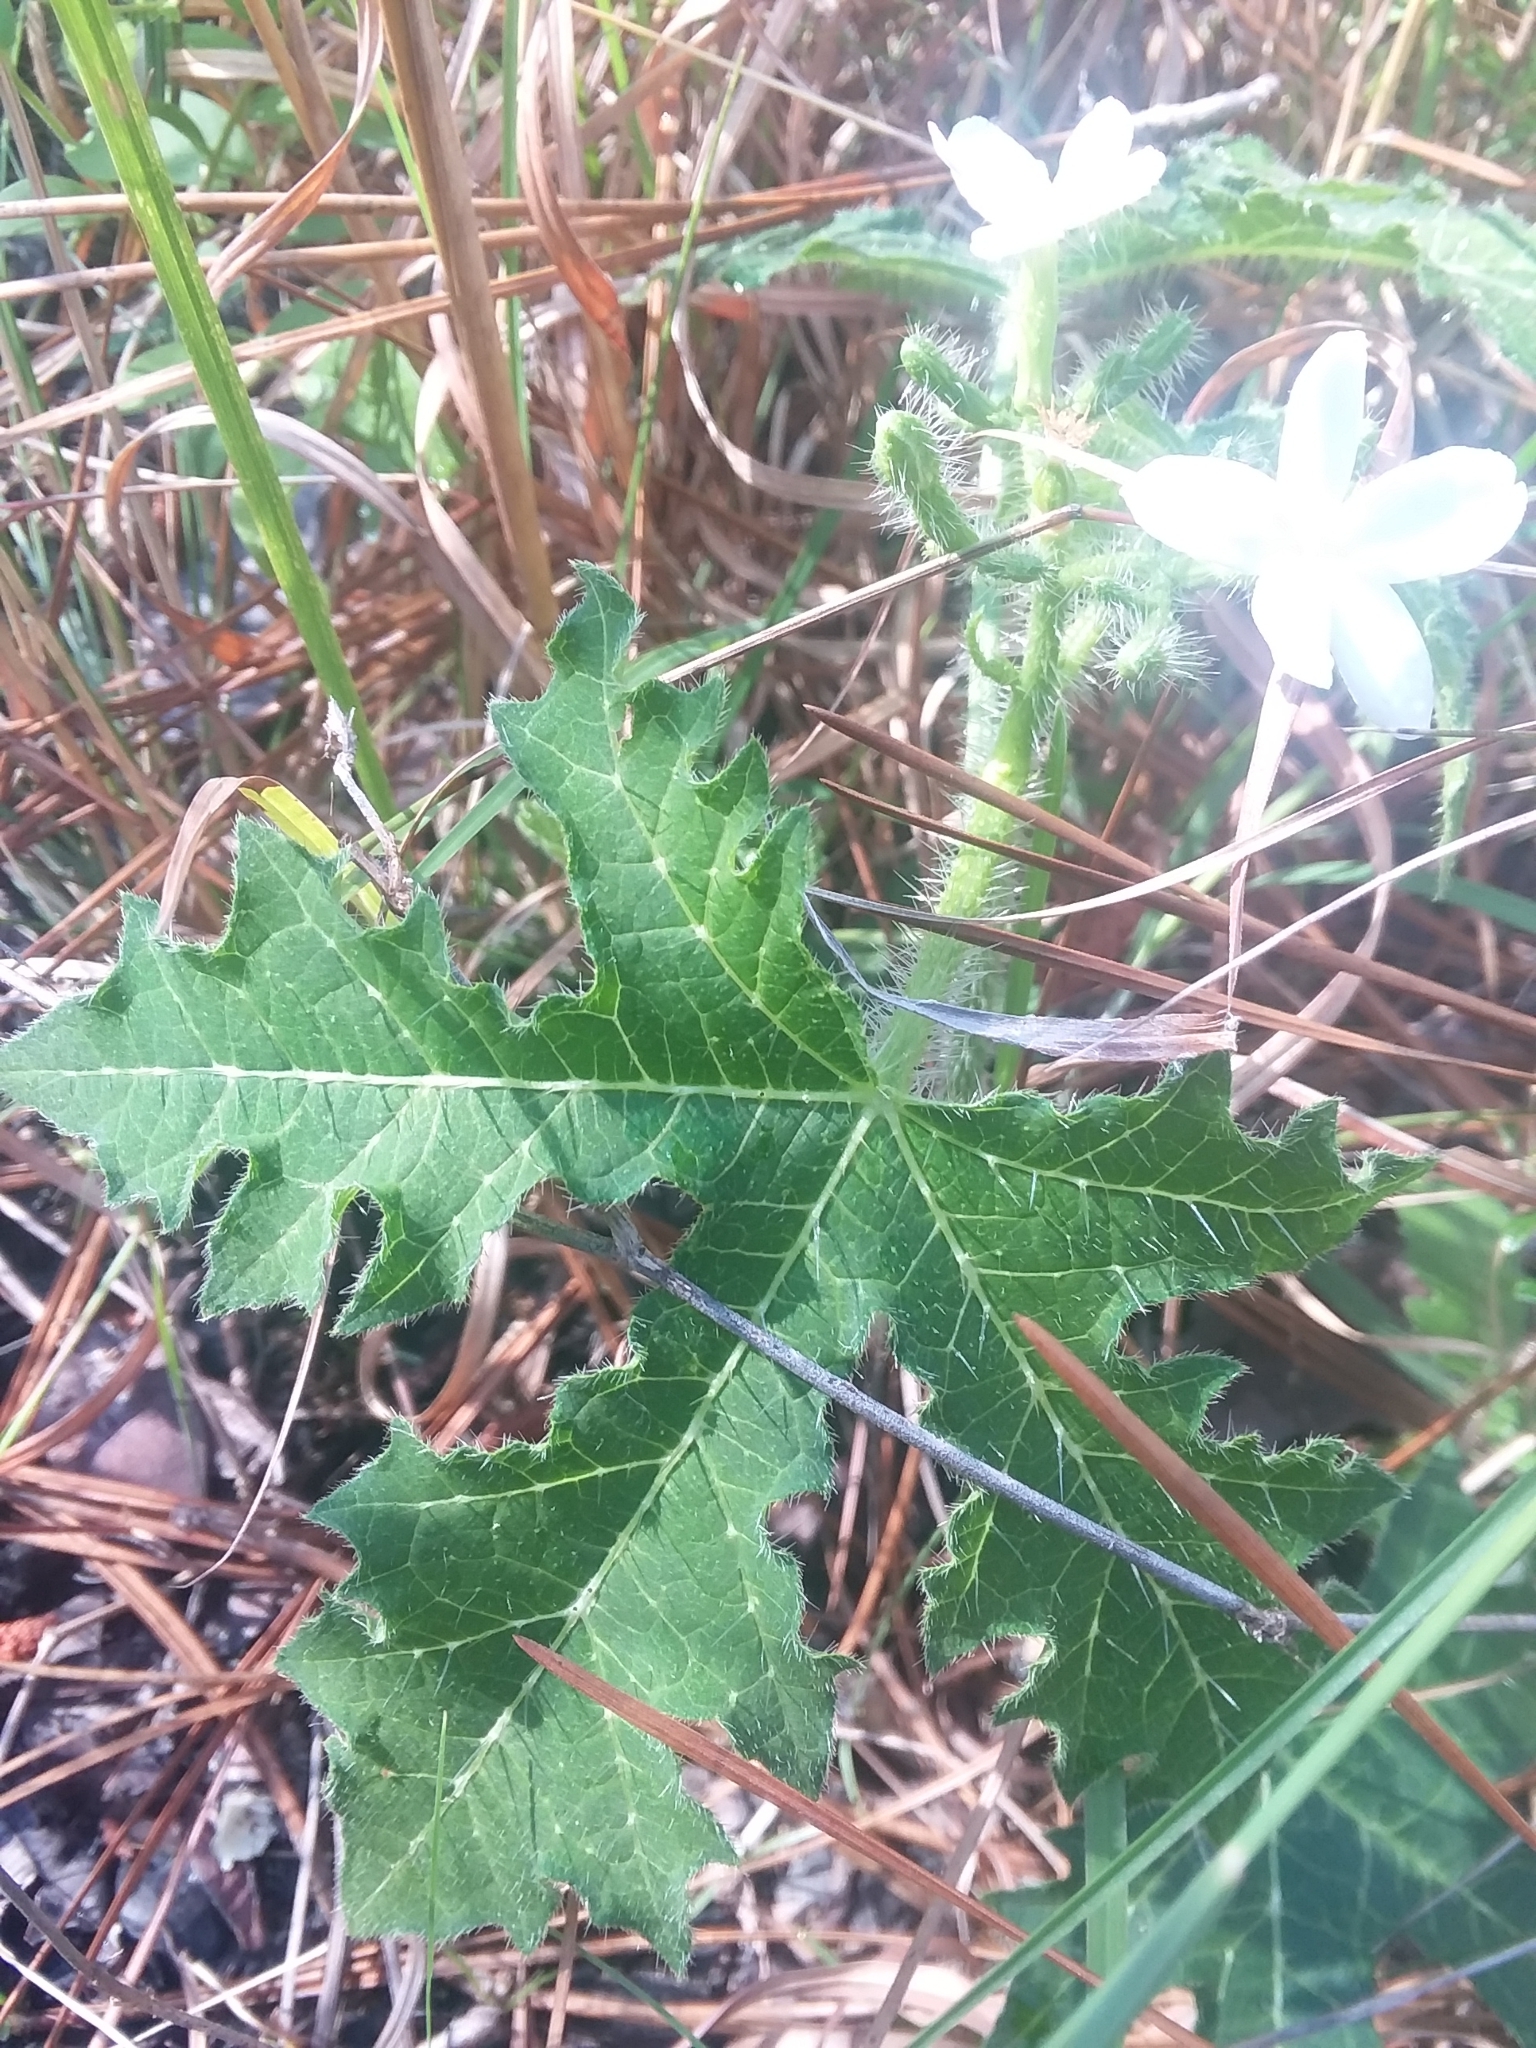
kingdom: Plantae
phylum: Tracheophyta
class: Magnoliopsida
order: Malpighiales
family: Euphorbiaceae
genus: Cnidoscolus
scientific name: Cnidoscolus stimulosus
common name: Bull-nettle
